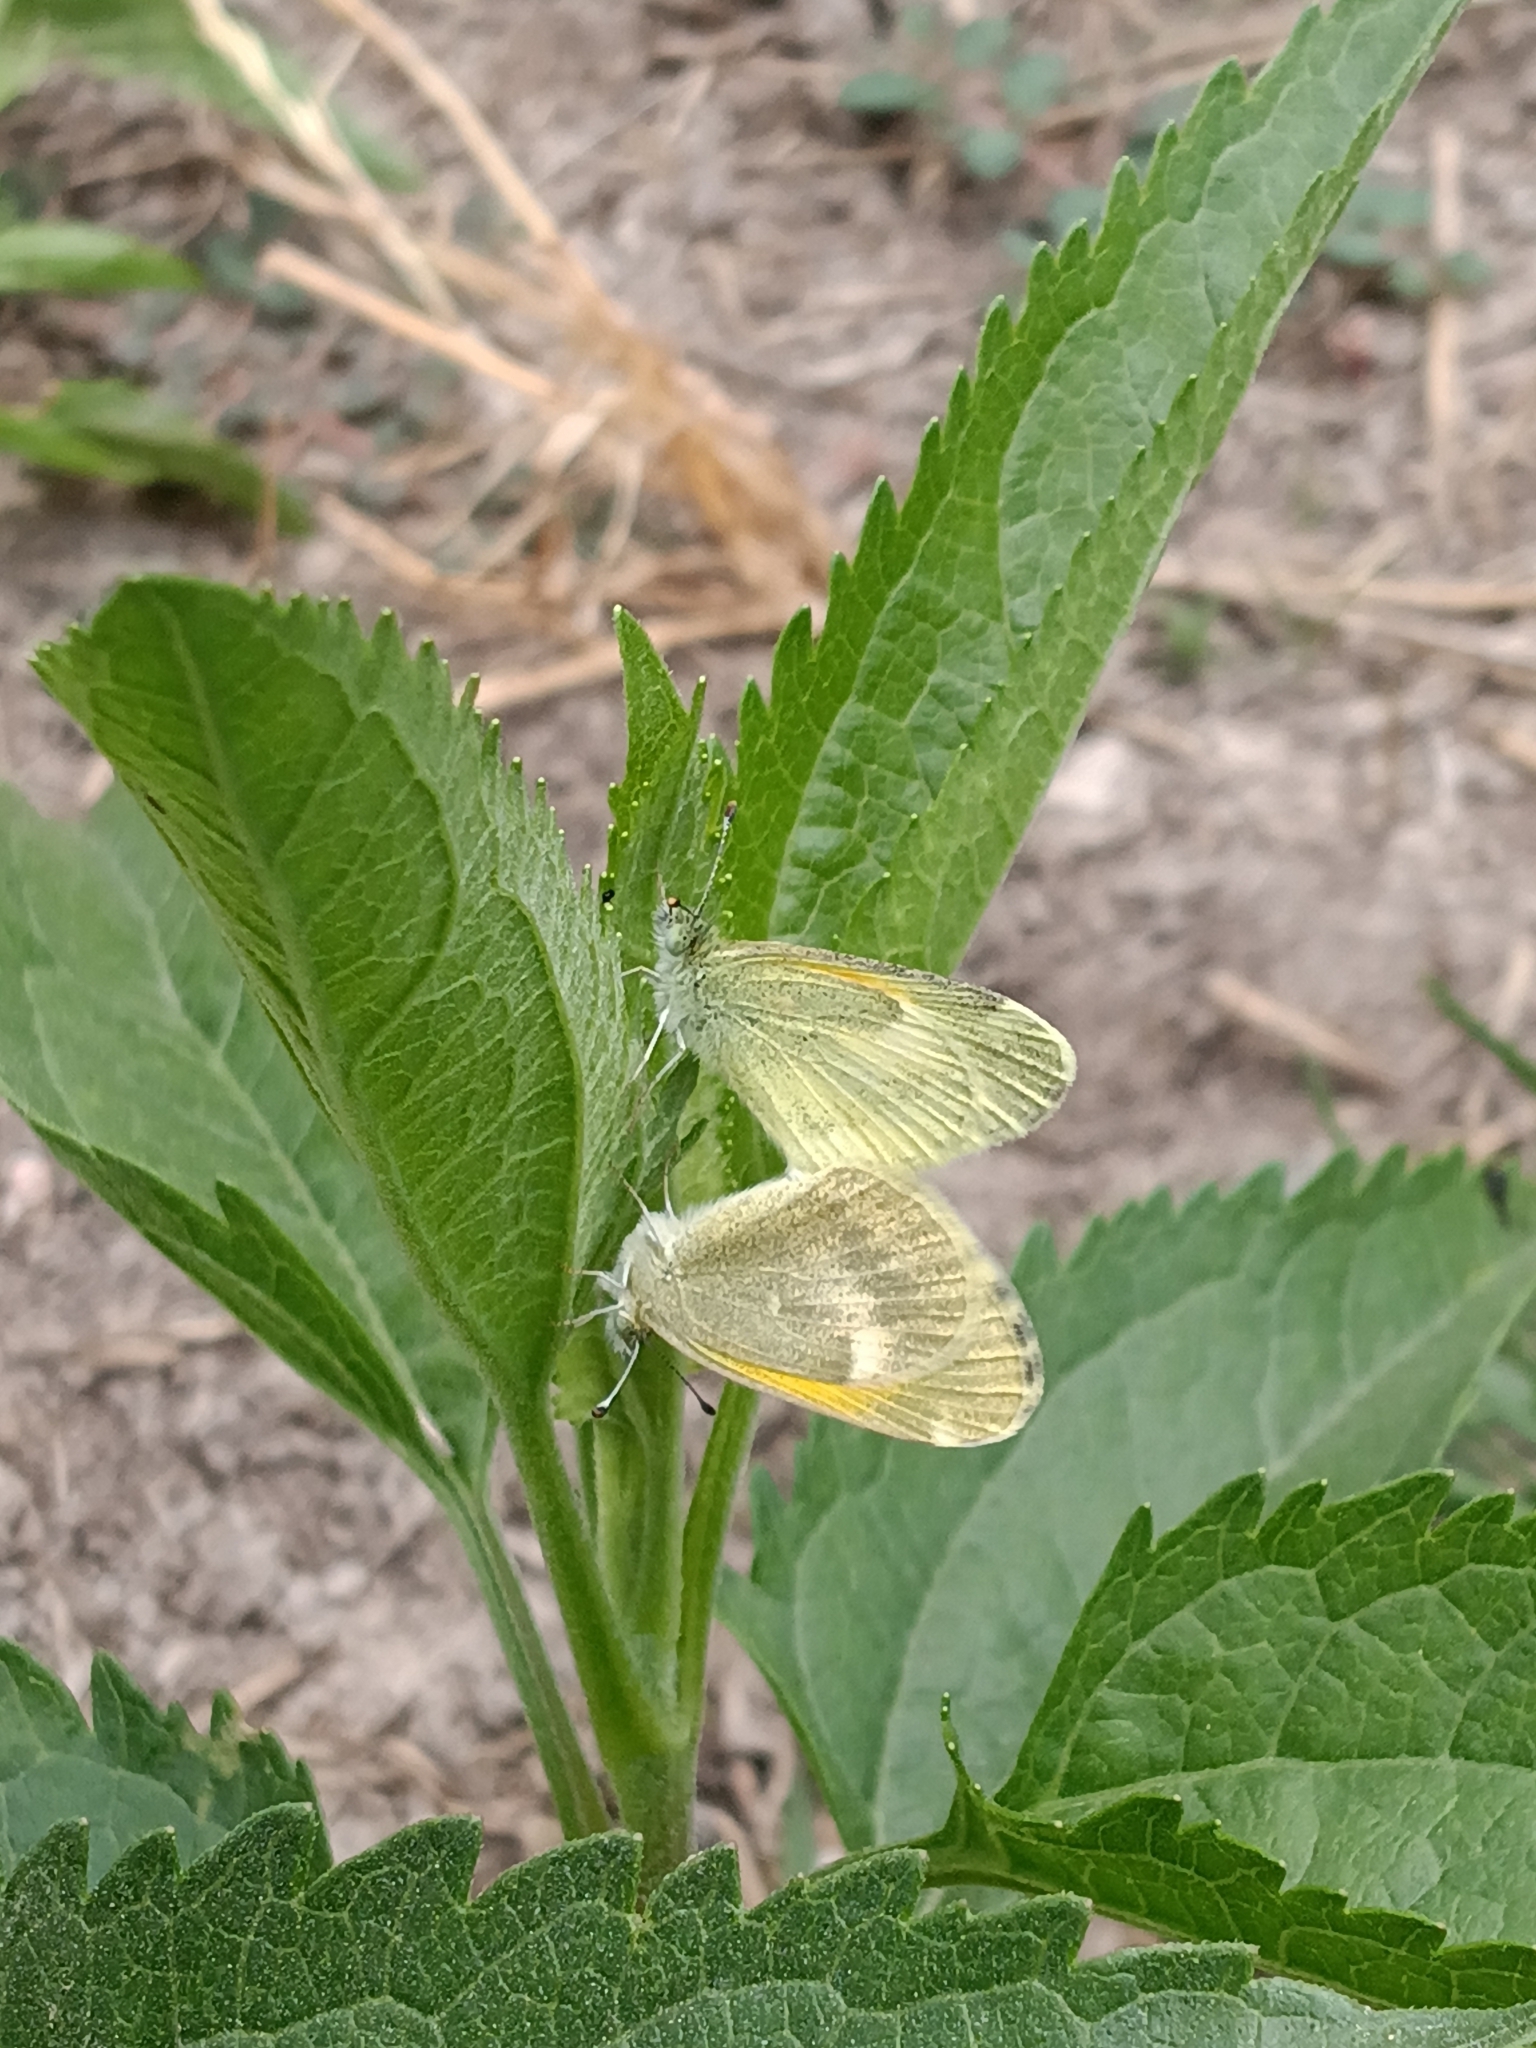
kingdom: Animalia
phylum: Arthropoda
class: Insecta
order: Lepidoptera
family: Pieridae
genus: Nathalis
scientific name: Nathalis iole
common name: Dainty sulphur
